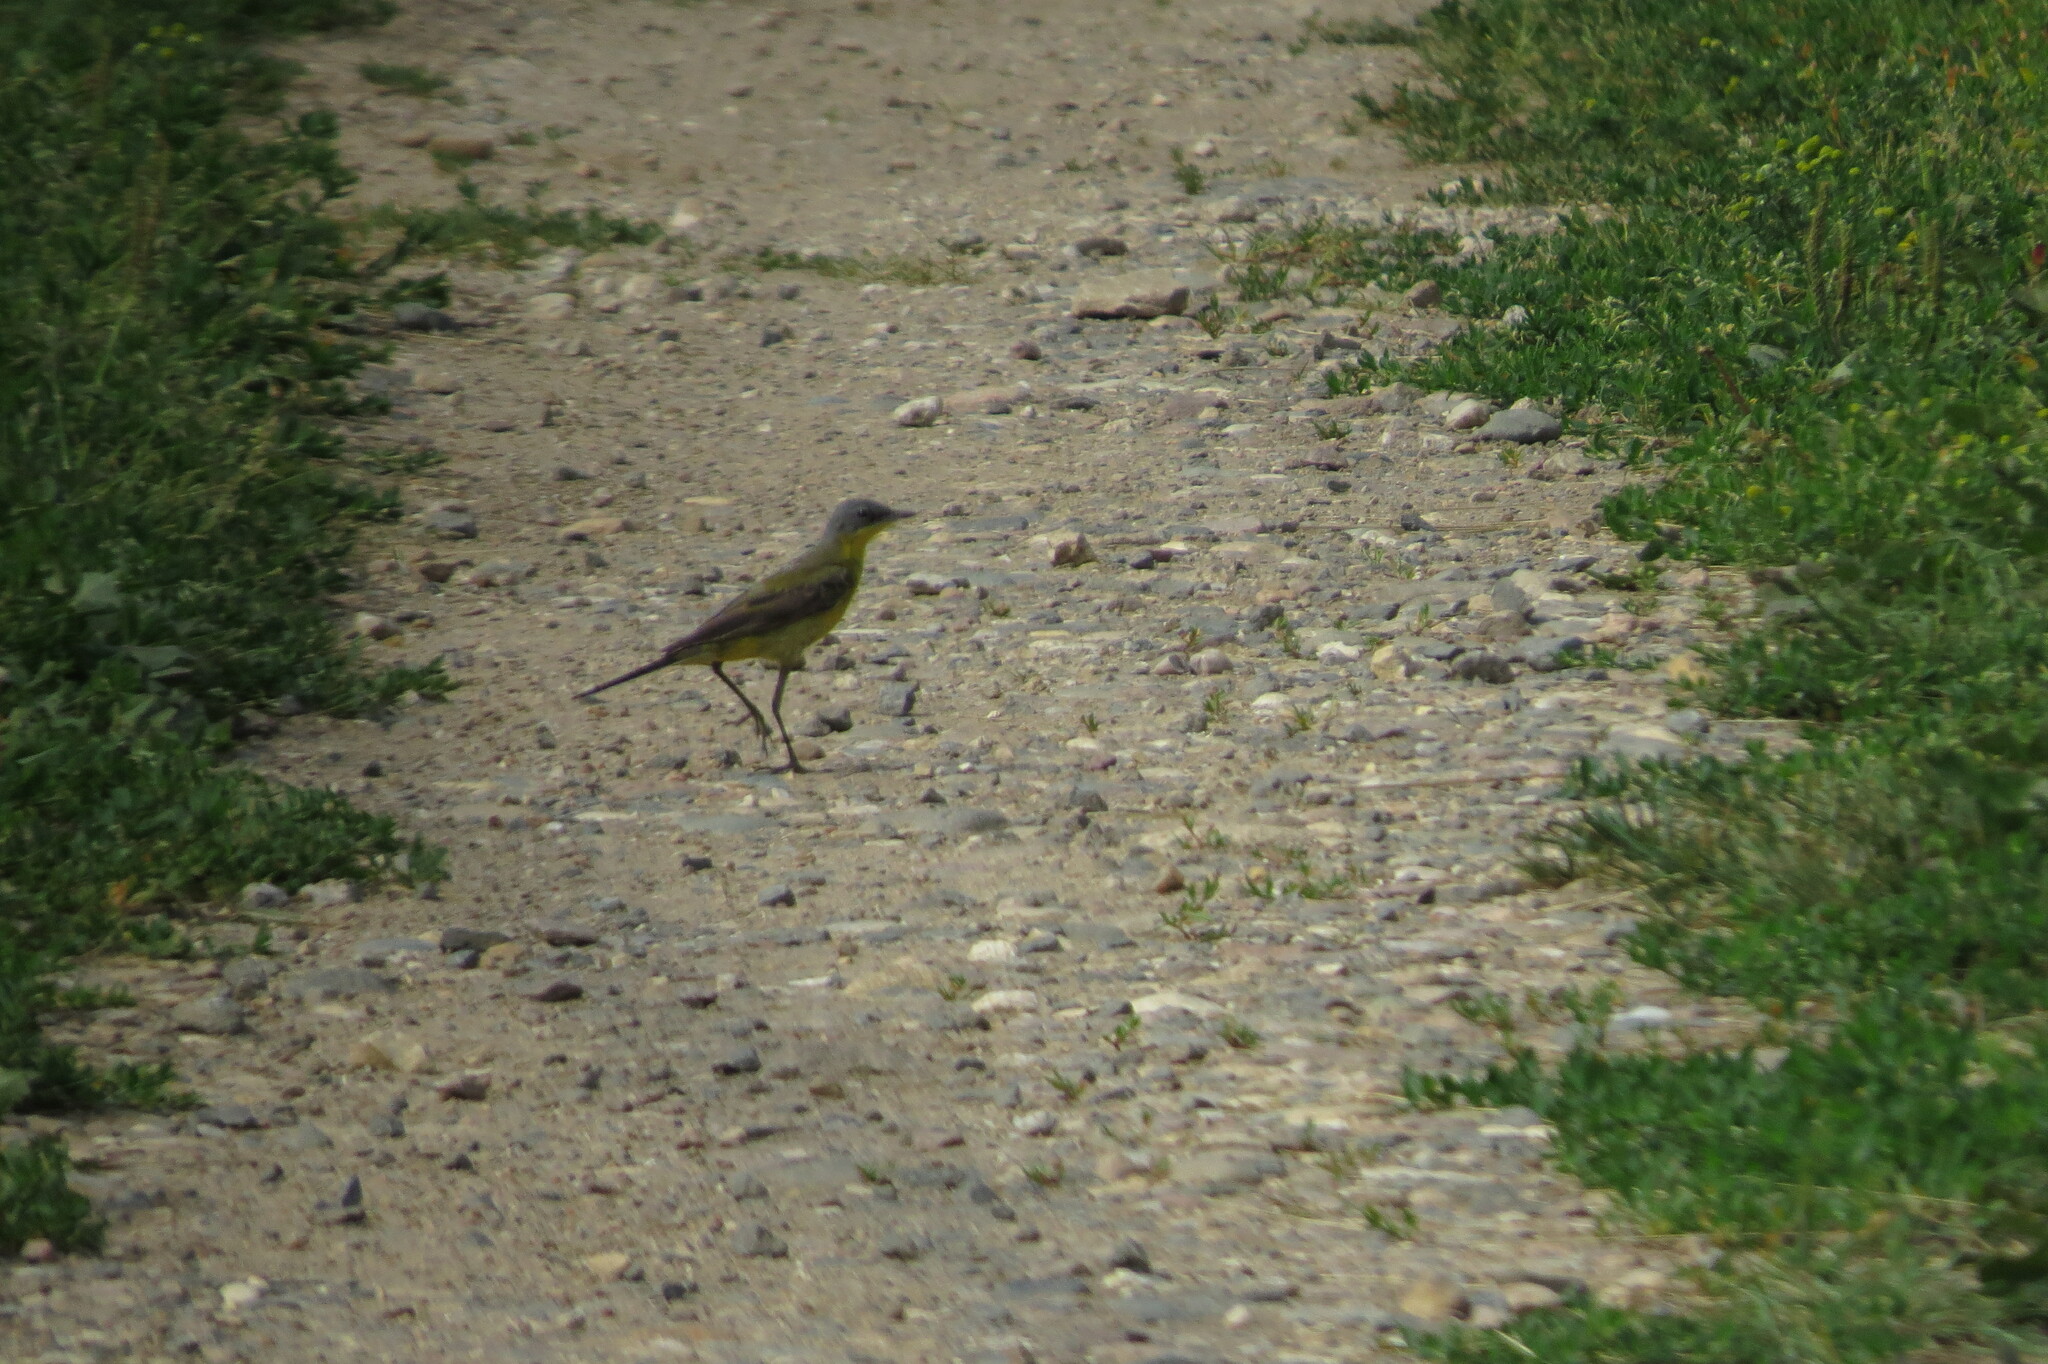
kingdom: Animalia
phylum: Chordata
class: Aves
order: Passeriformes
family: Motacillidae
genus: Motacilla
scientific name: Motacilla flava
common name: Western yellow wagtail
